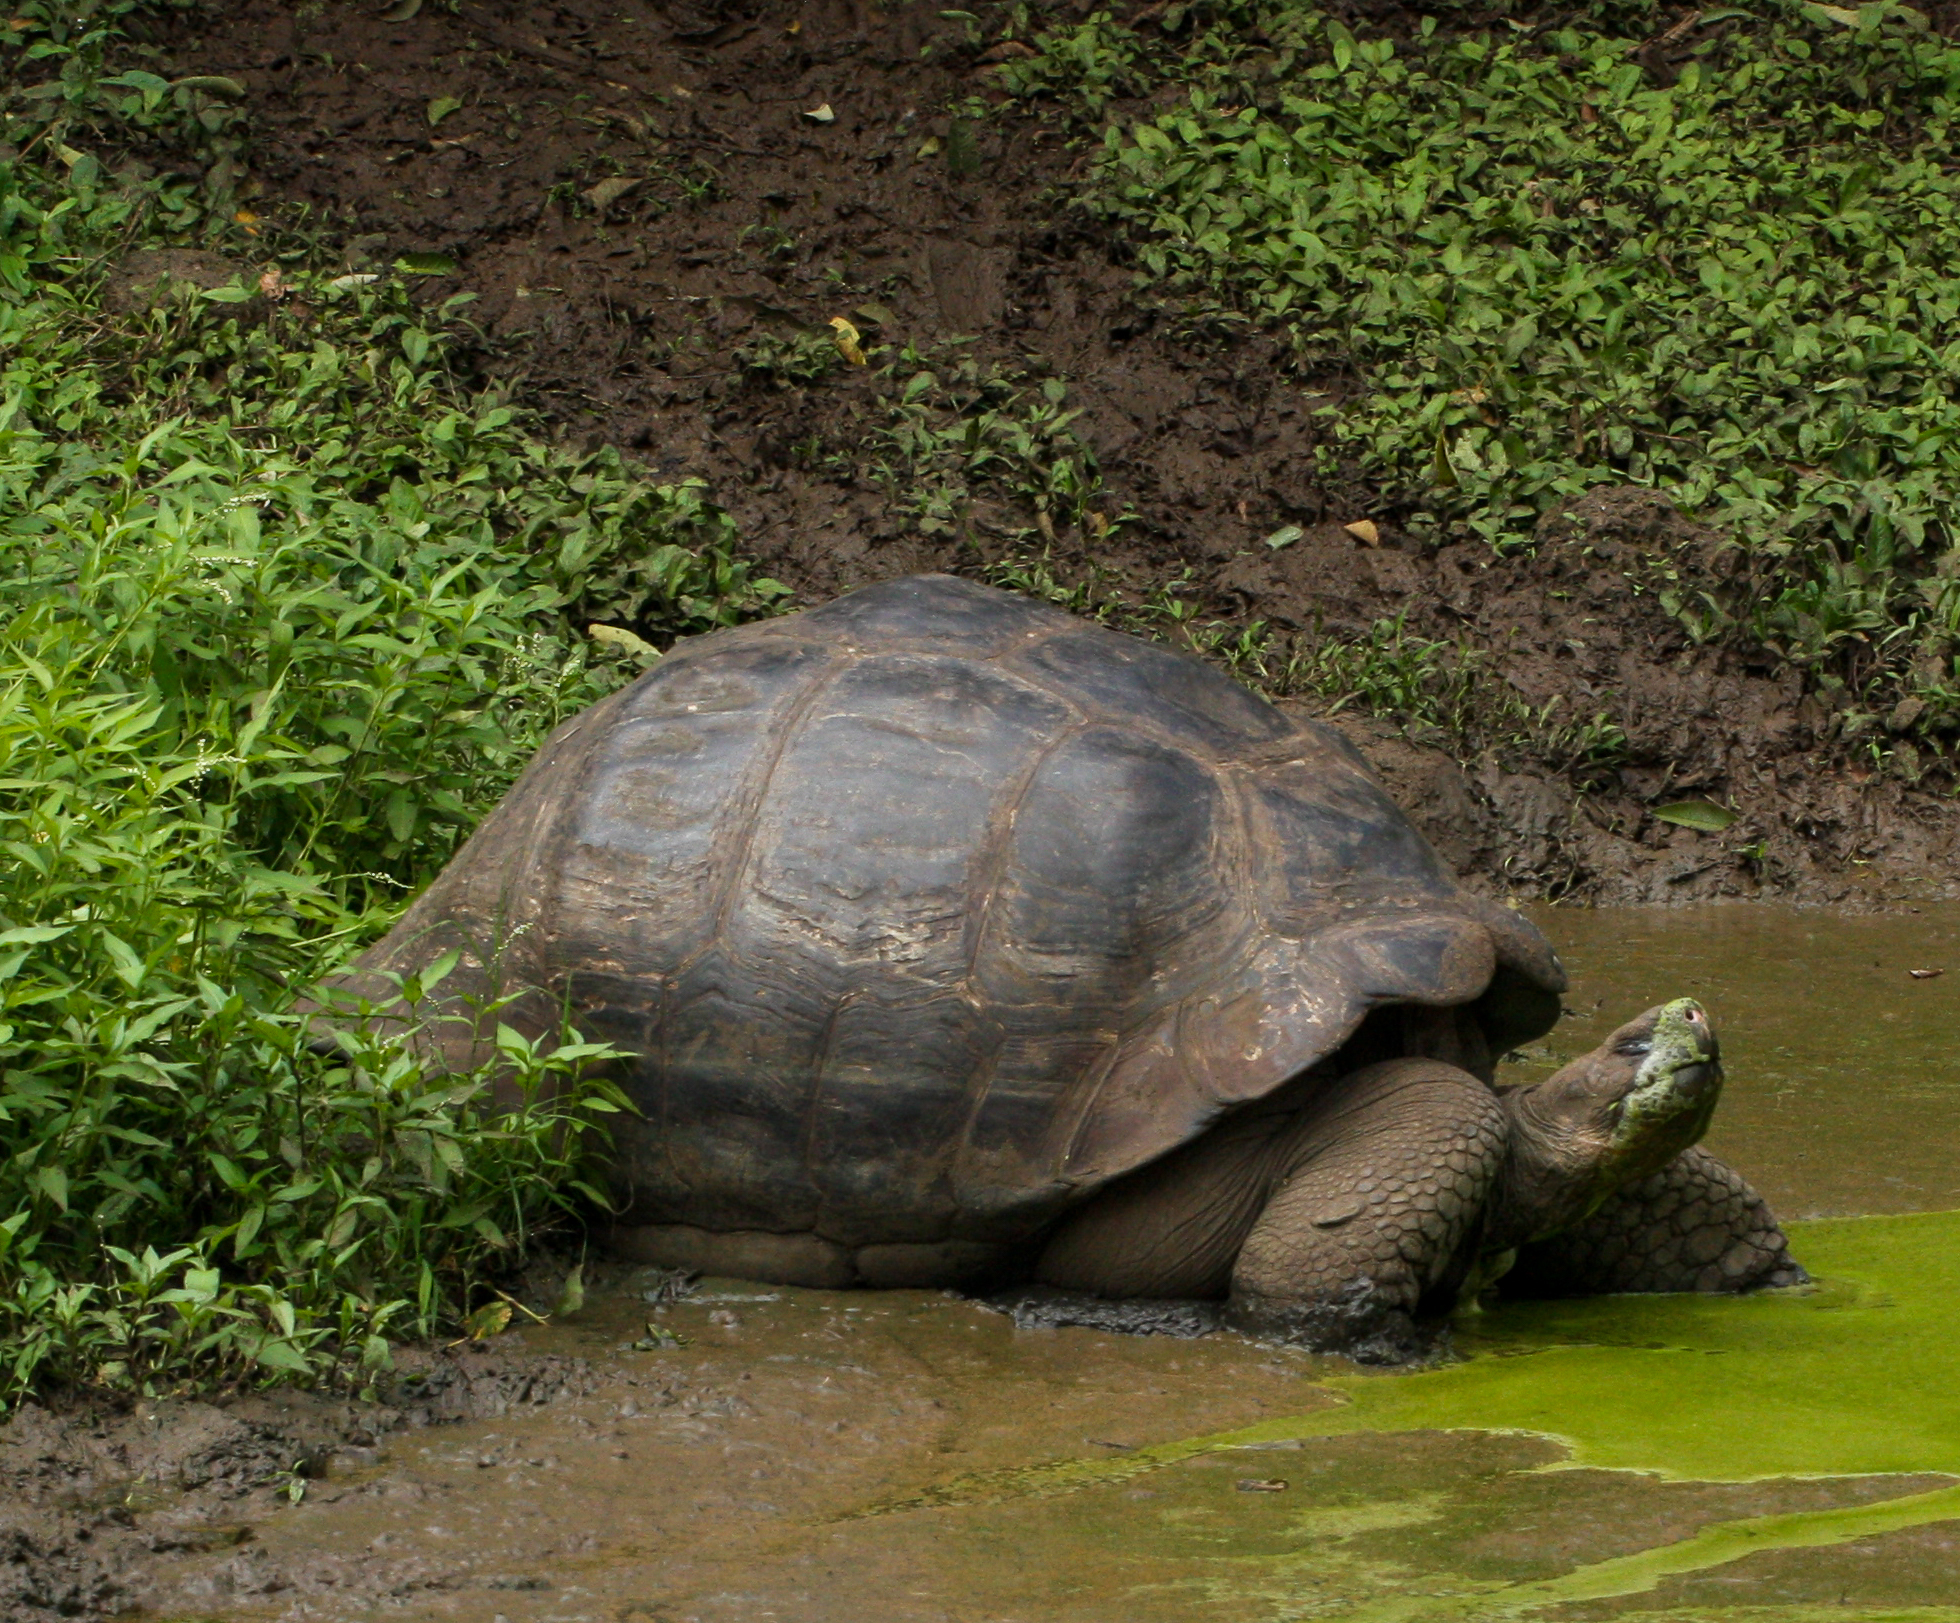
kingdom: Animalia
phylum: Chordata
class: Testudines
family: Testudinidae
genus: Chelonoidis
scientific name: Chelonoidis porteri
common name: Indefatigable island giant tortoise
